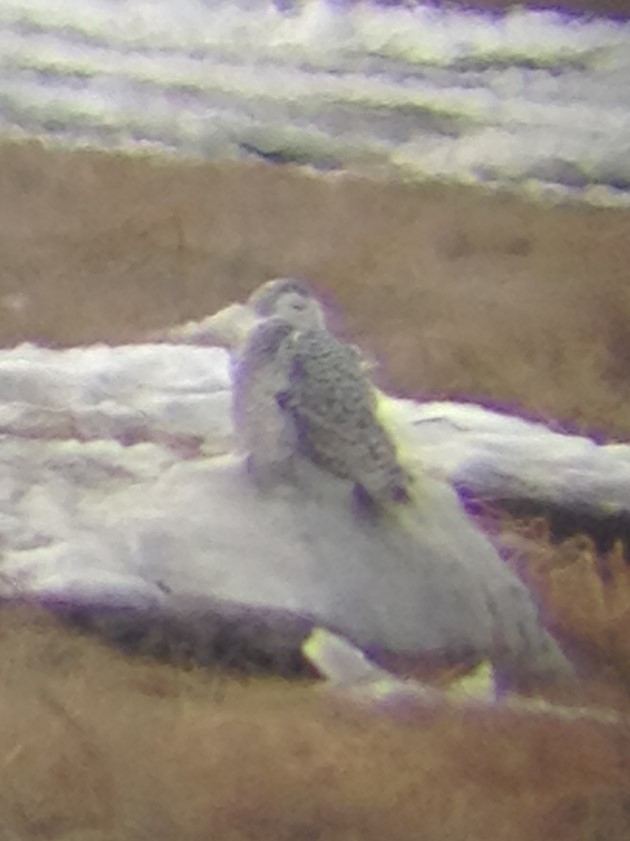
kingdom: Animalia
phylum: Chordata
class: Aves
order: Strigiformes
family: Strigidae
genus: Bubo
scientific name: Bubo scandiacus
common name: Snowy owl
